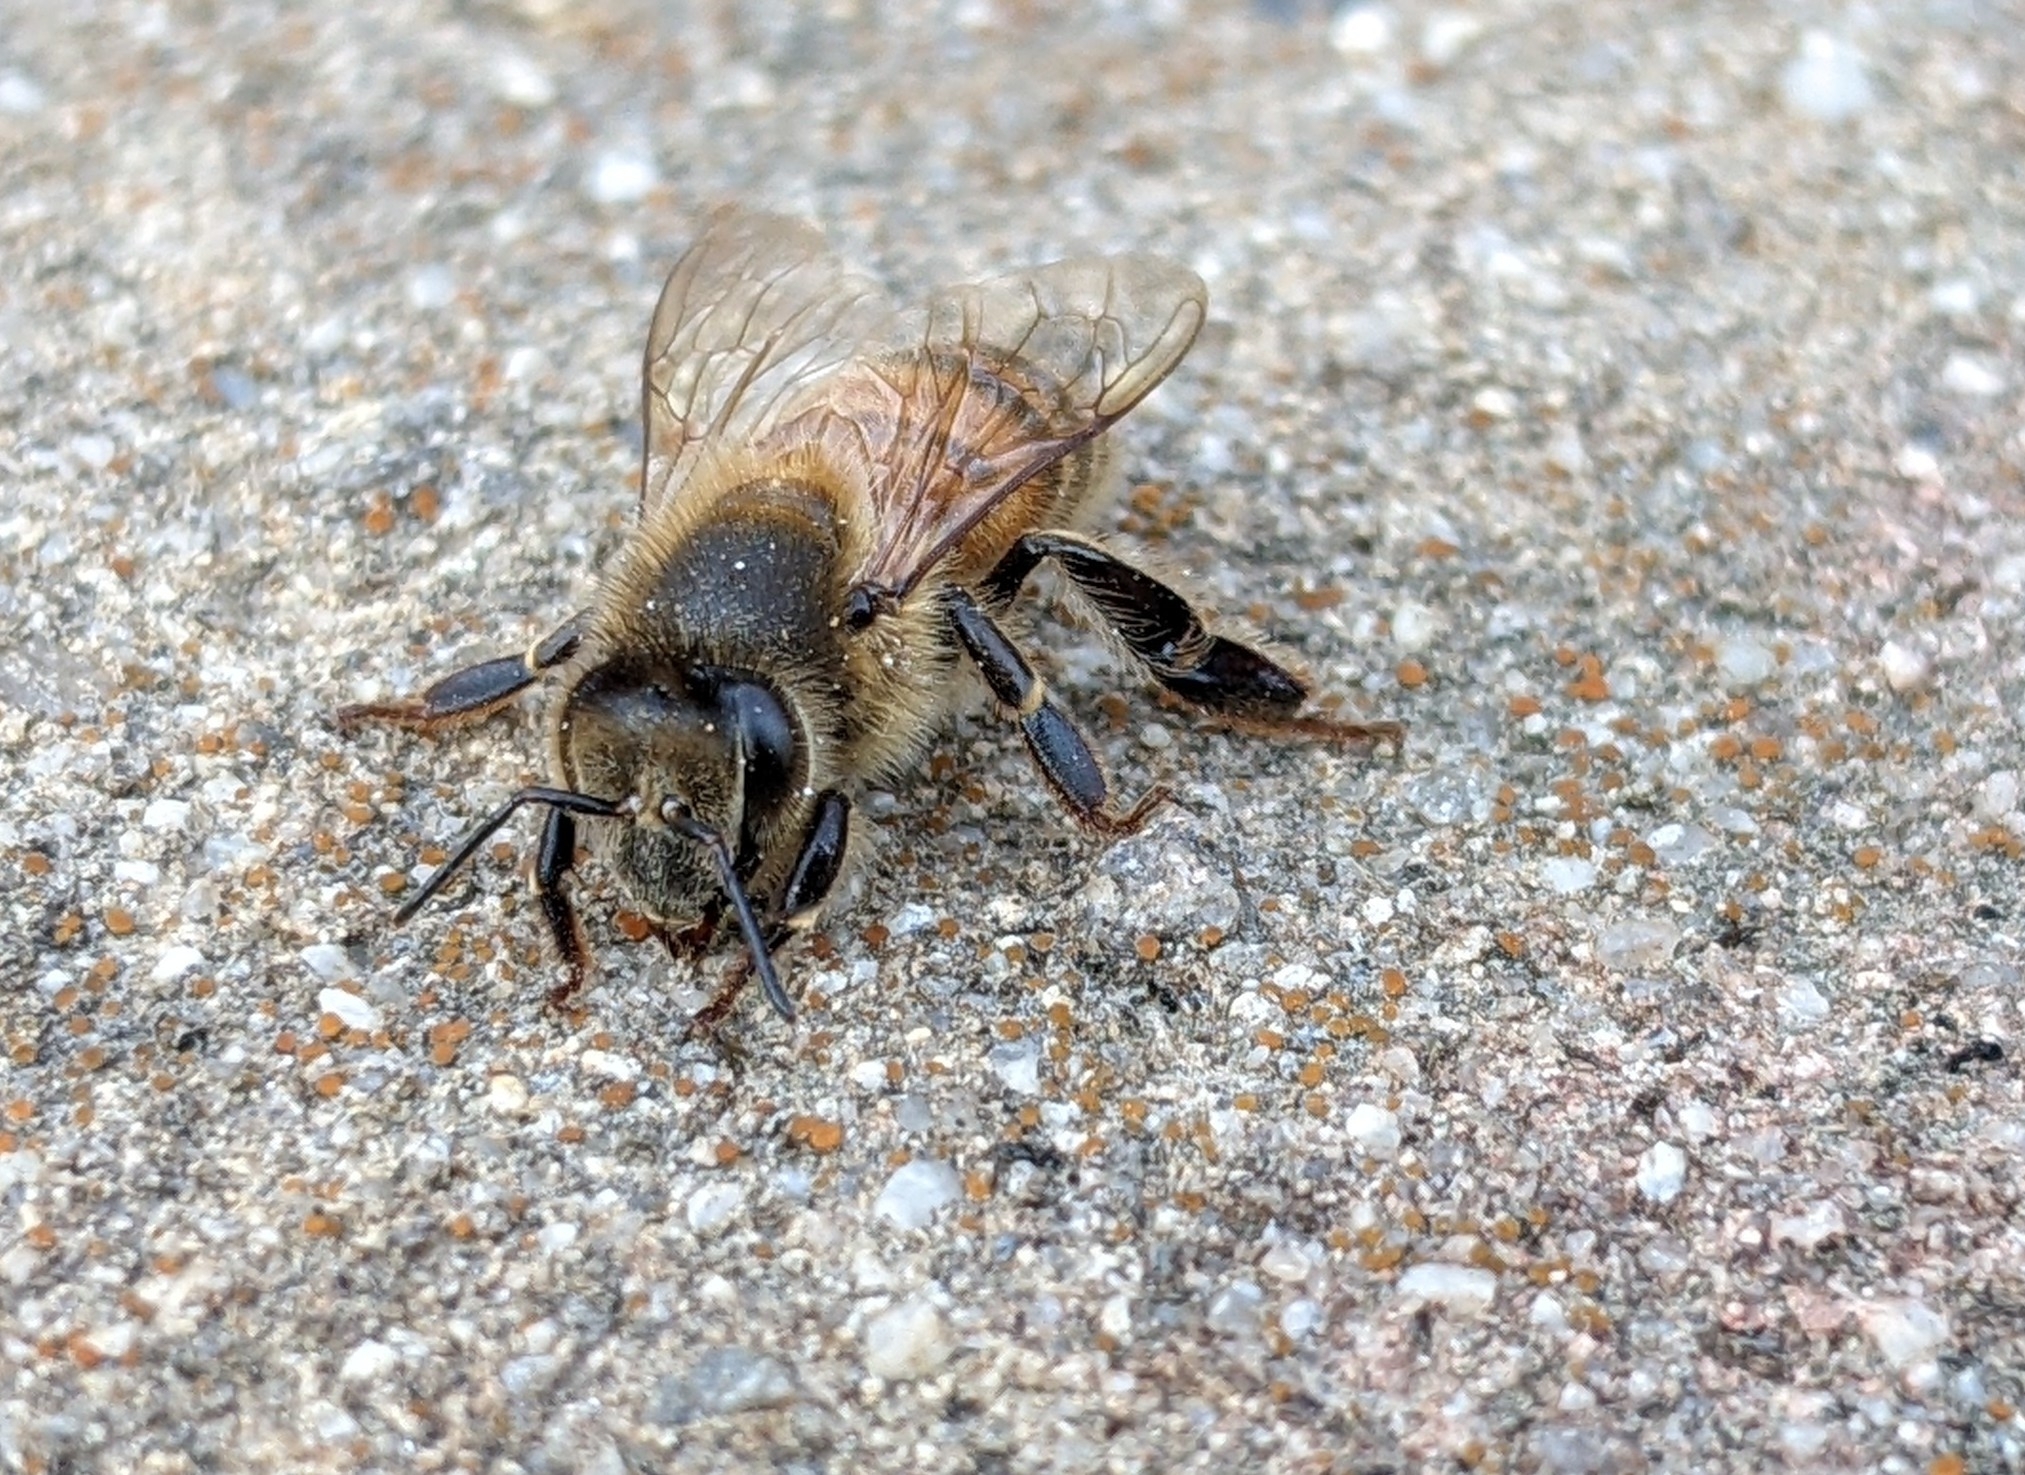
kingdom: Animalia
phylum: Arthropoda
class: Insecta
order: Hymenoptera
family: Apidae
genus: Apis
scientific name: Apis mellifera
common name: Honey bee
